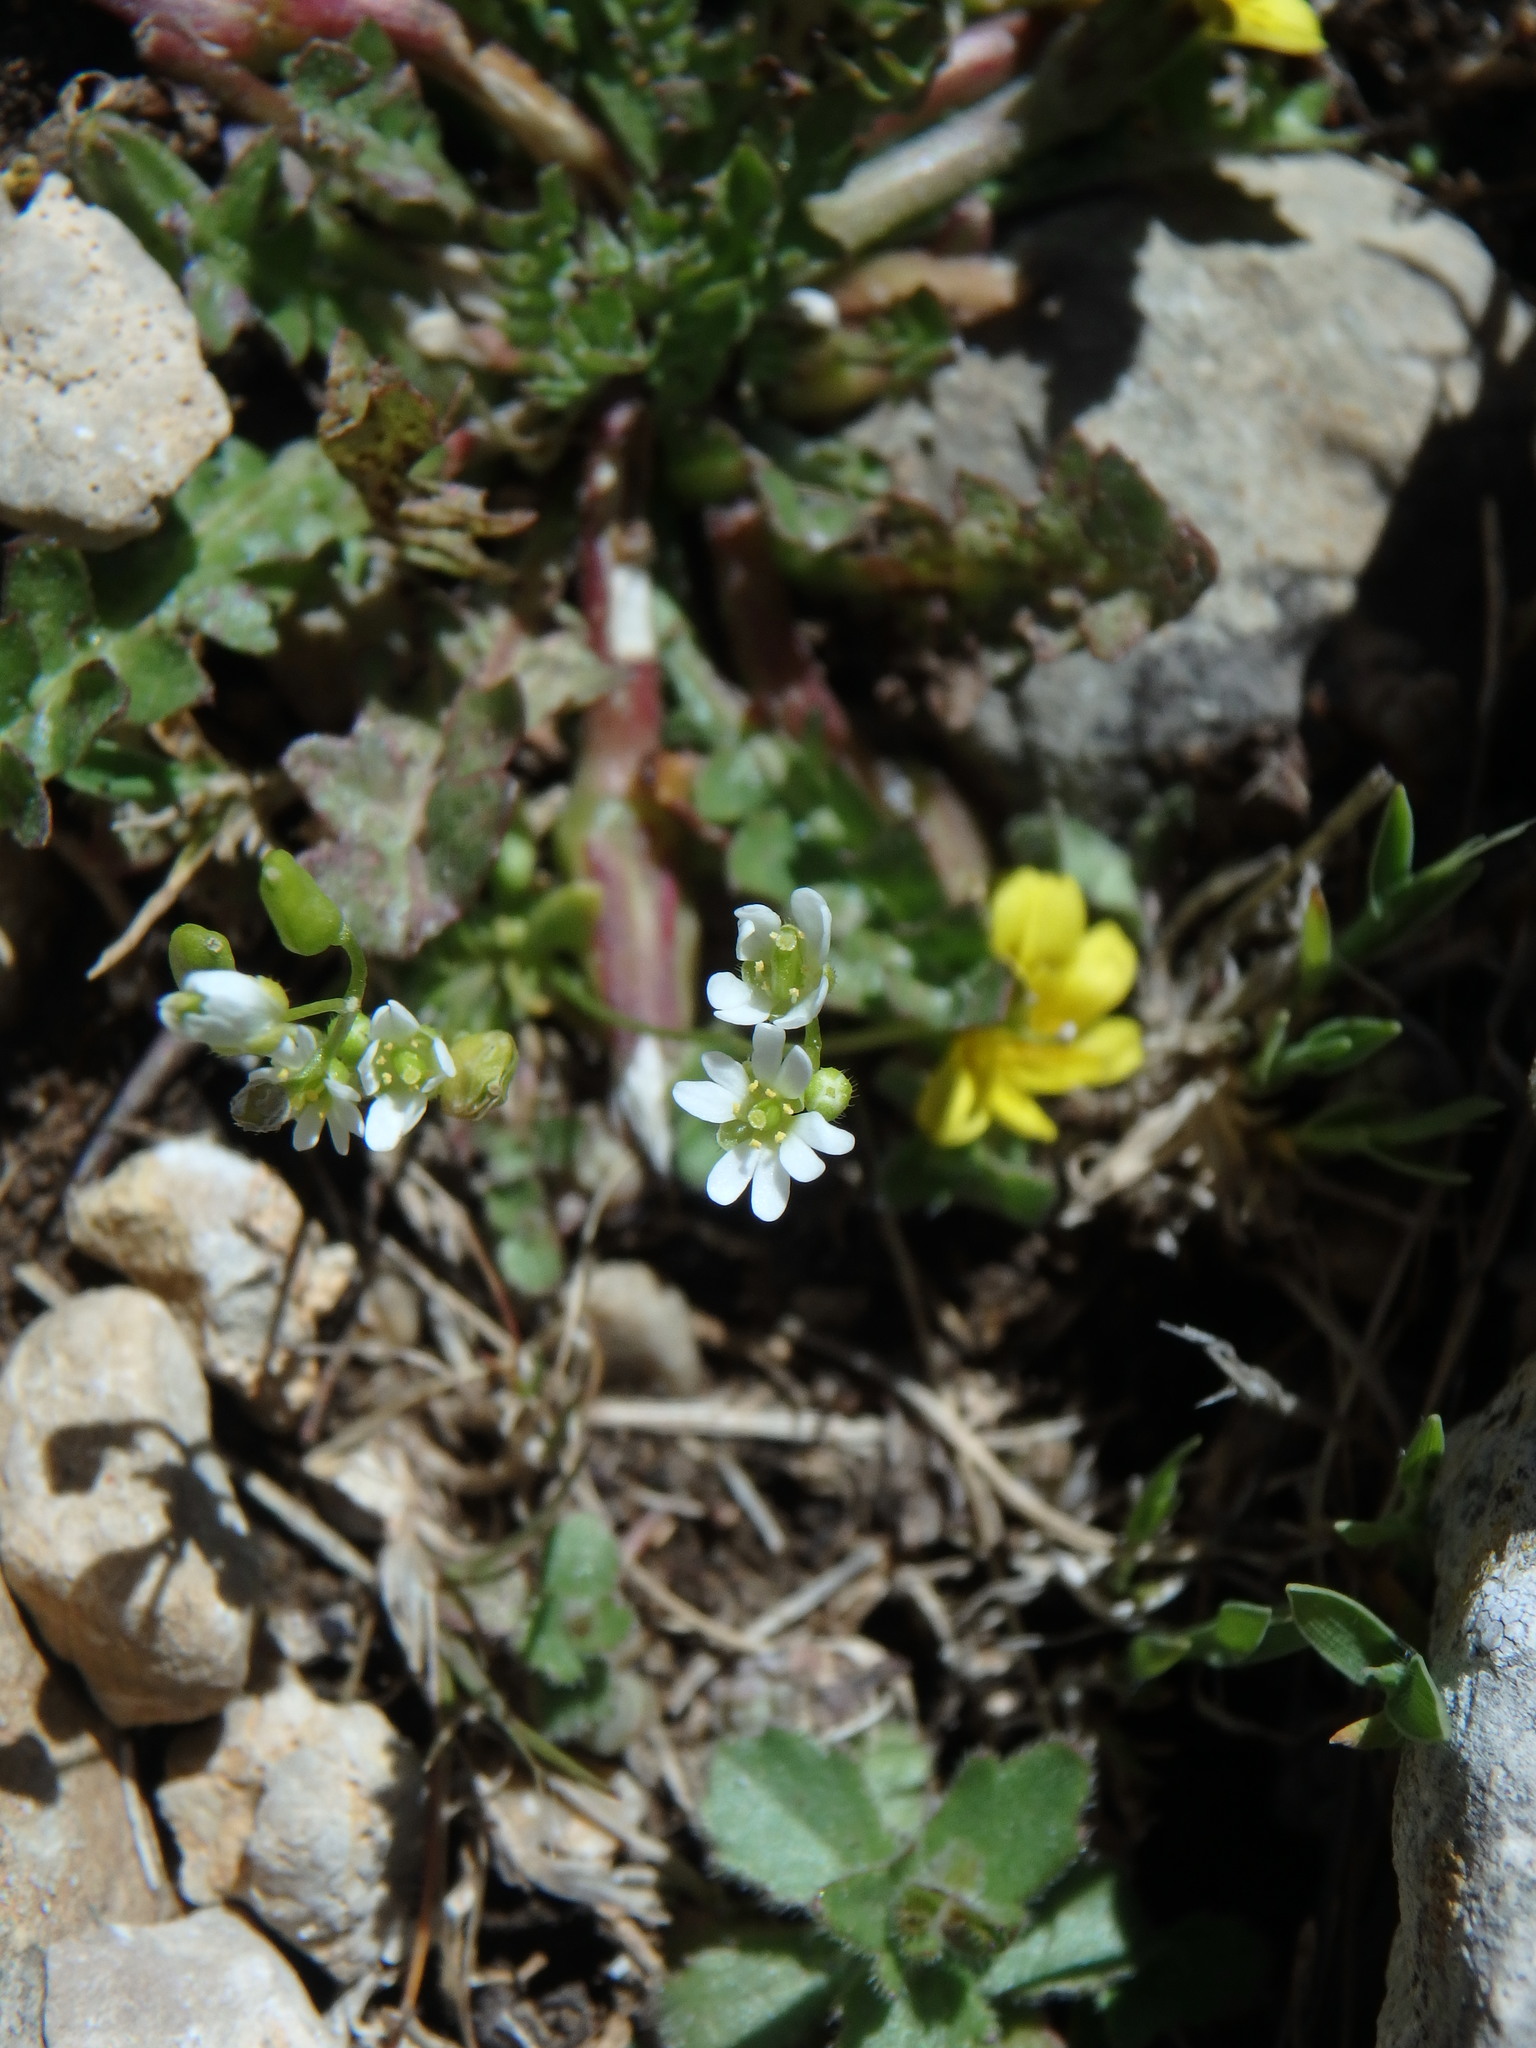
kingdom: Plantae
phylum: Tracheophyta
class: Magnoliopsida
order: Brassicales
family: Brassicaceae
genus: Draba
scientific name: Draba verna
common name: Spring draba
